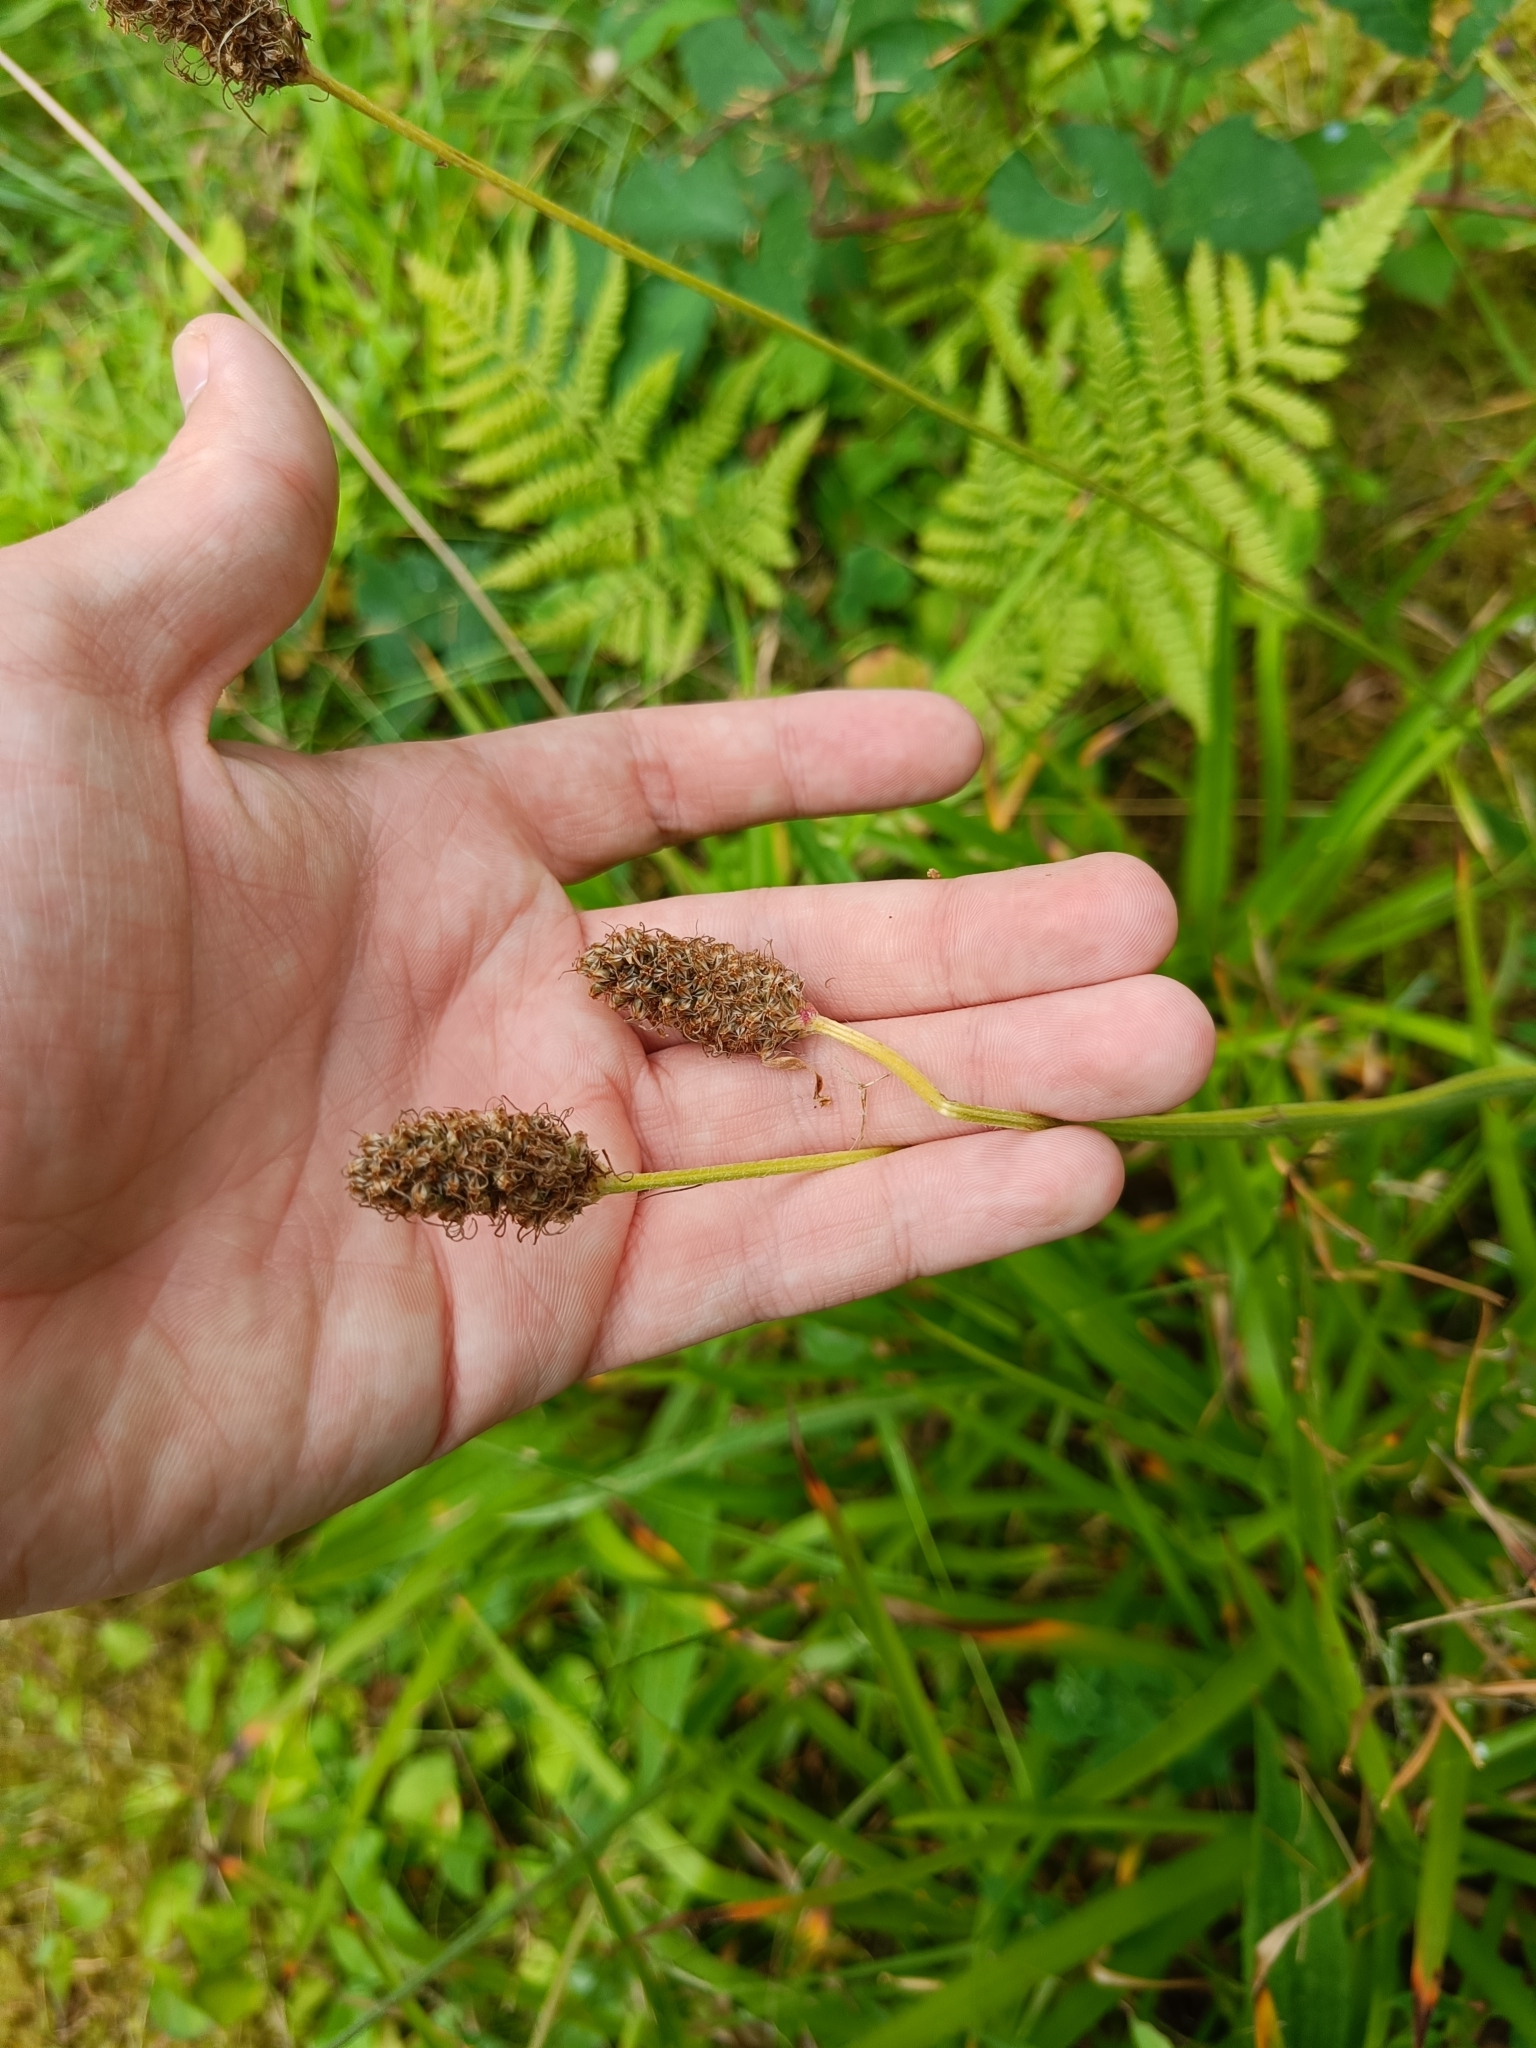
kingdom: Plantae
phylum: Tracheophyta
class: Magnoliopsida
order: Lamiales
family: Plantaginaceae
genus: Plantago
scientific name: Plantago lanceolata
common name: Ribwort plantain
